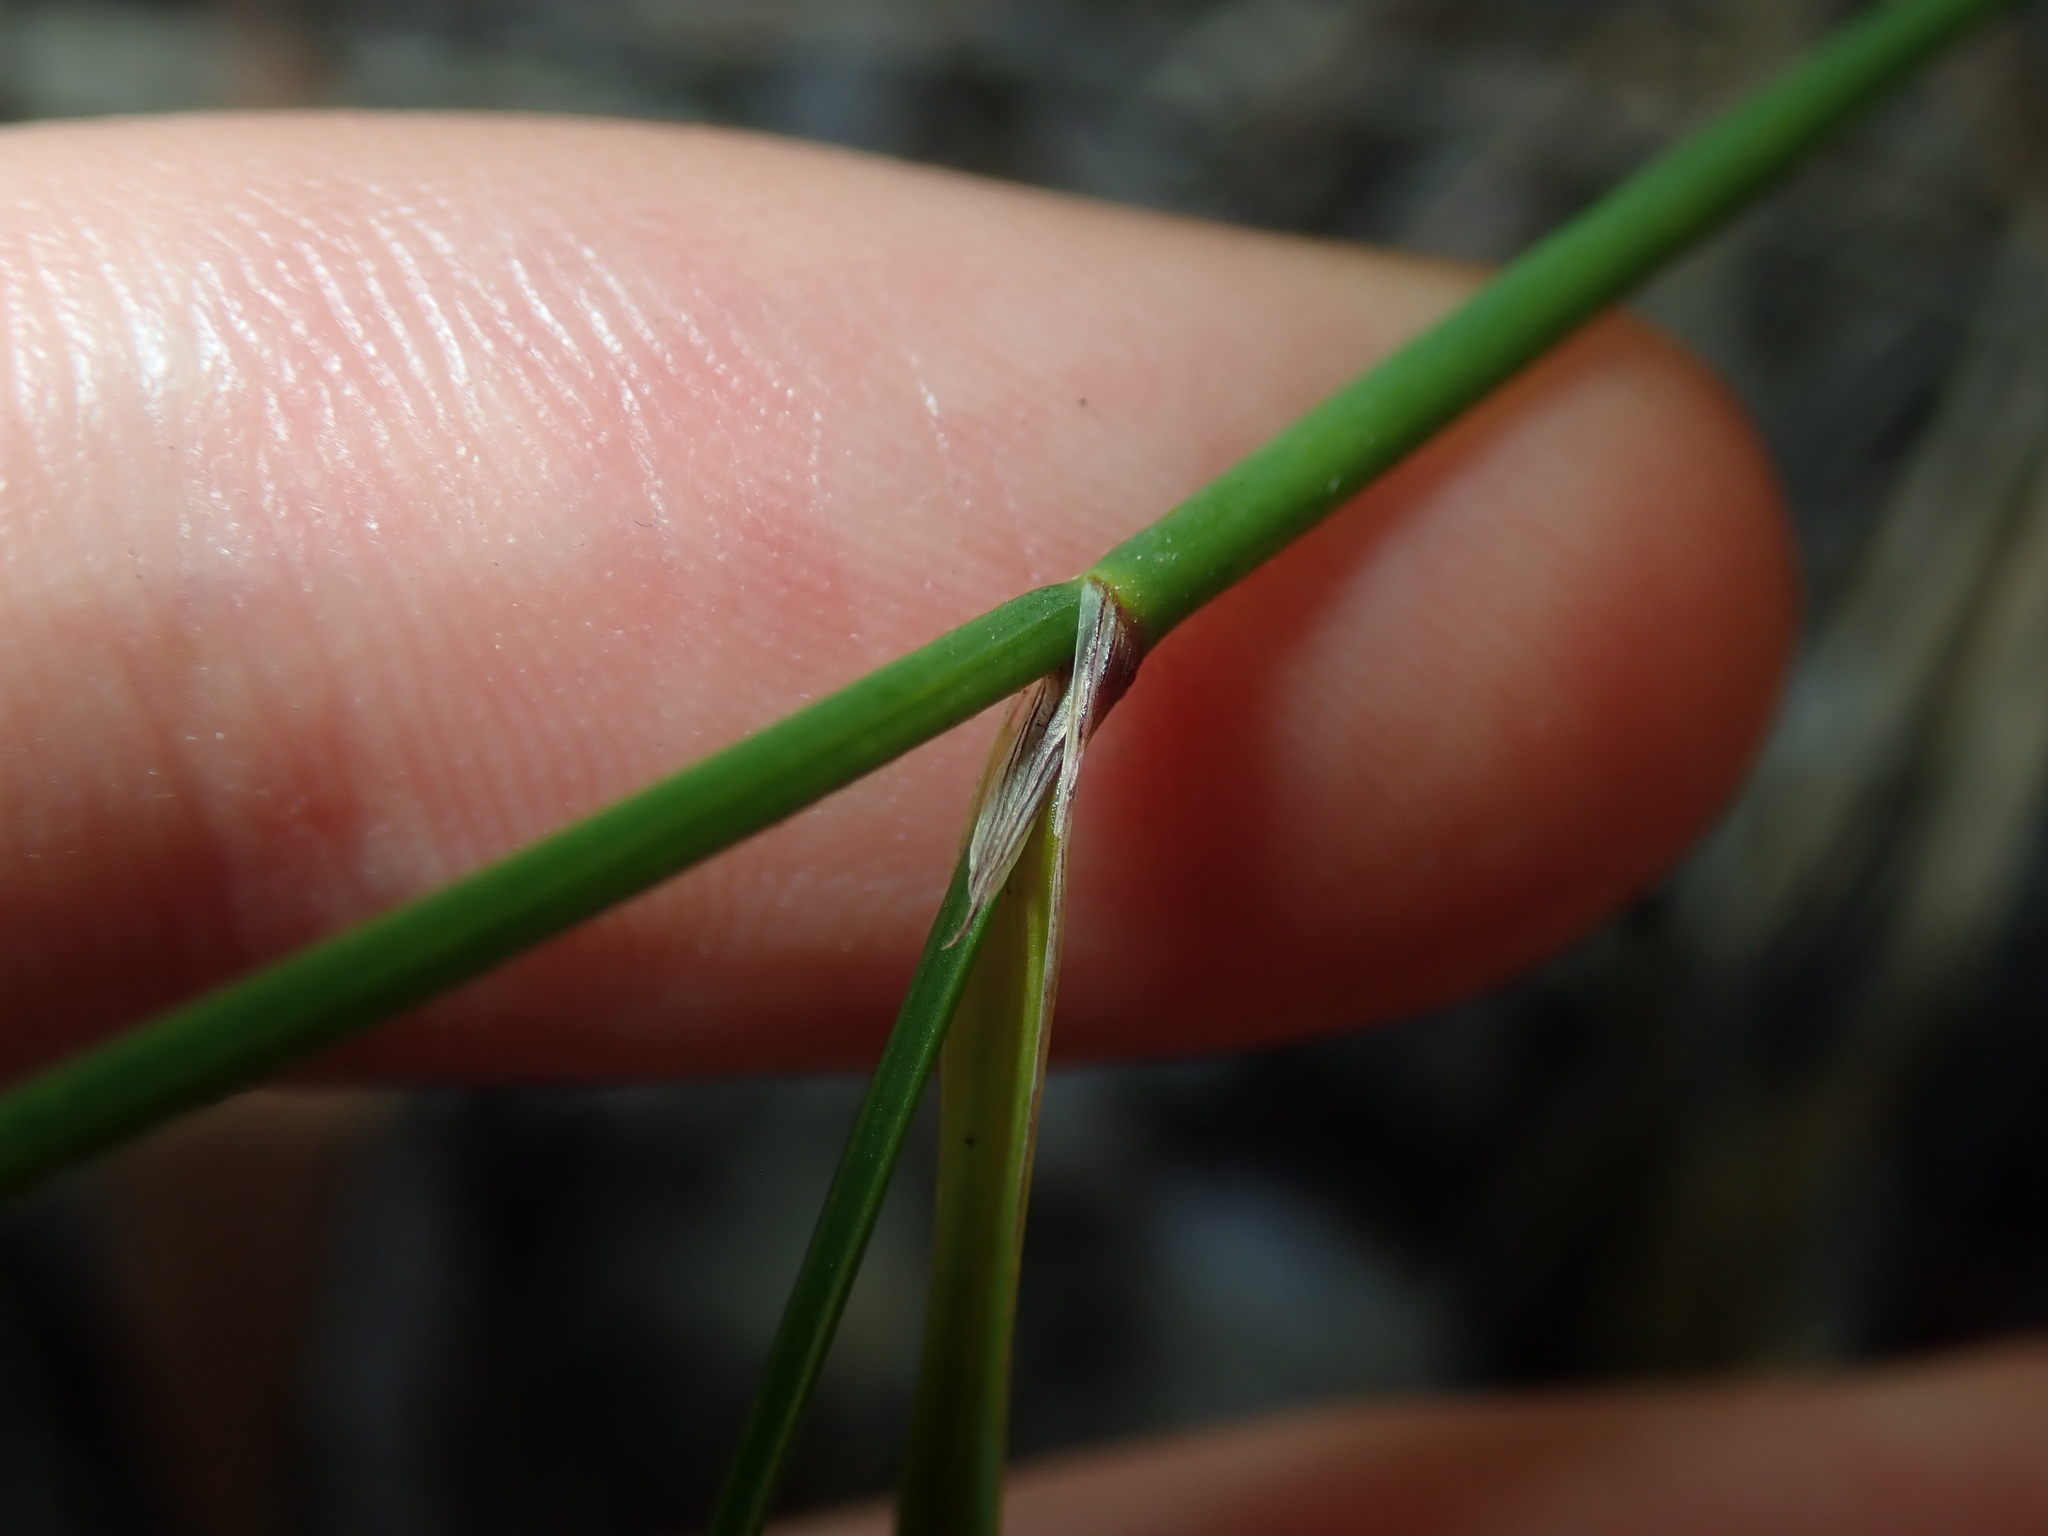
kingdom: Plantae
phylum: Tracheophyta
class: Liliopsida
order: Asparagales
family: Asphodelaceae
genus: Tricoryne
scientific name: Tricoryne elatior
